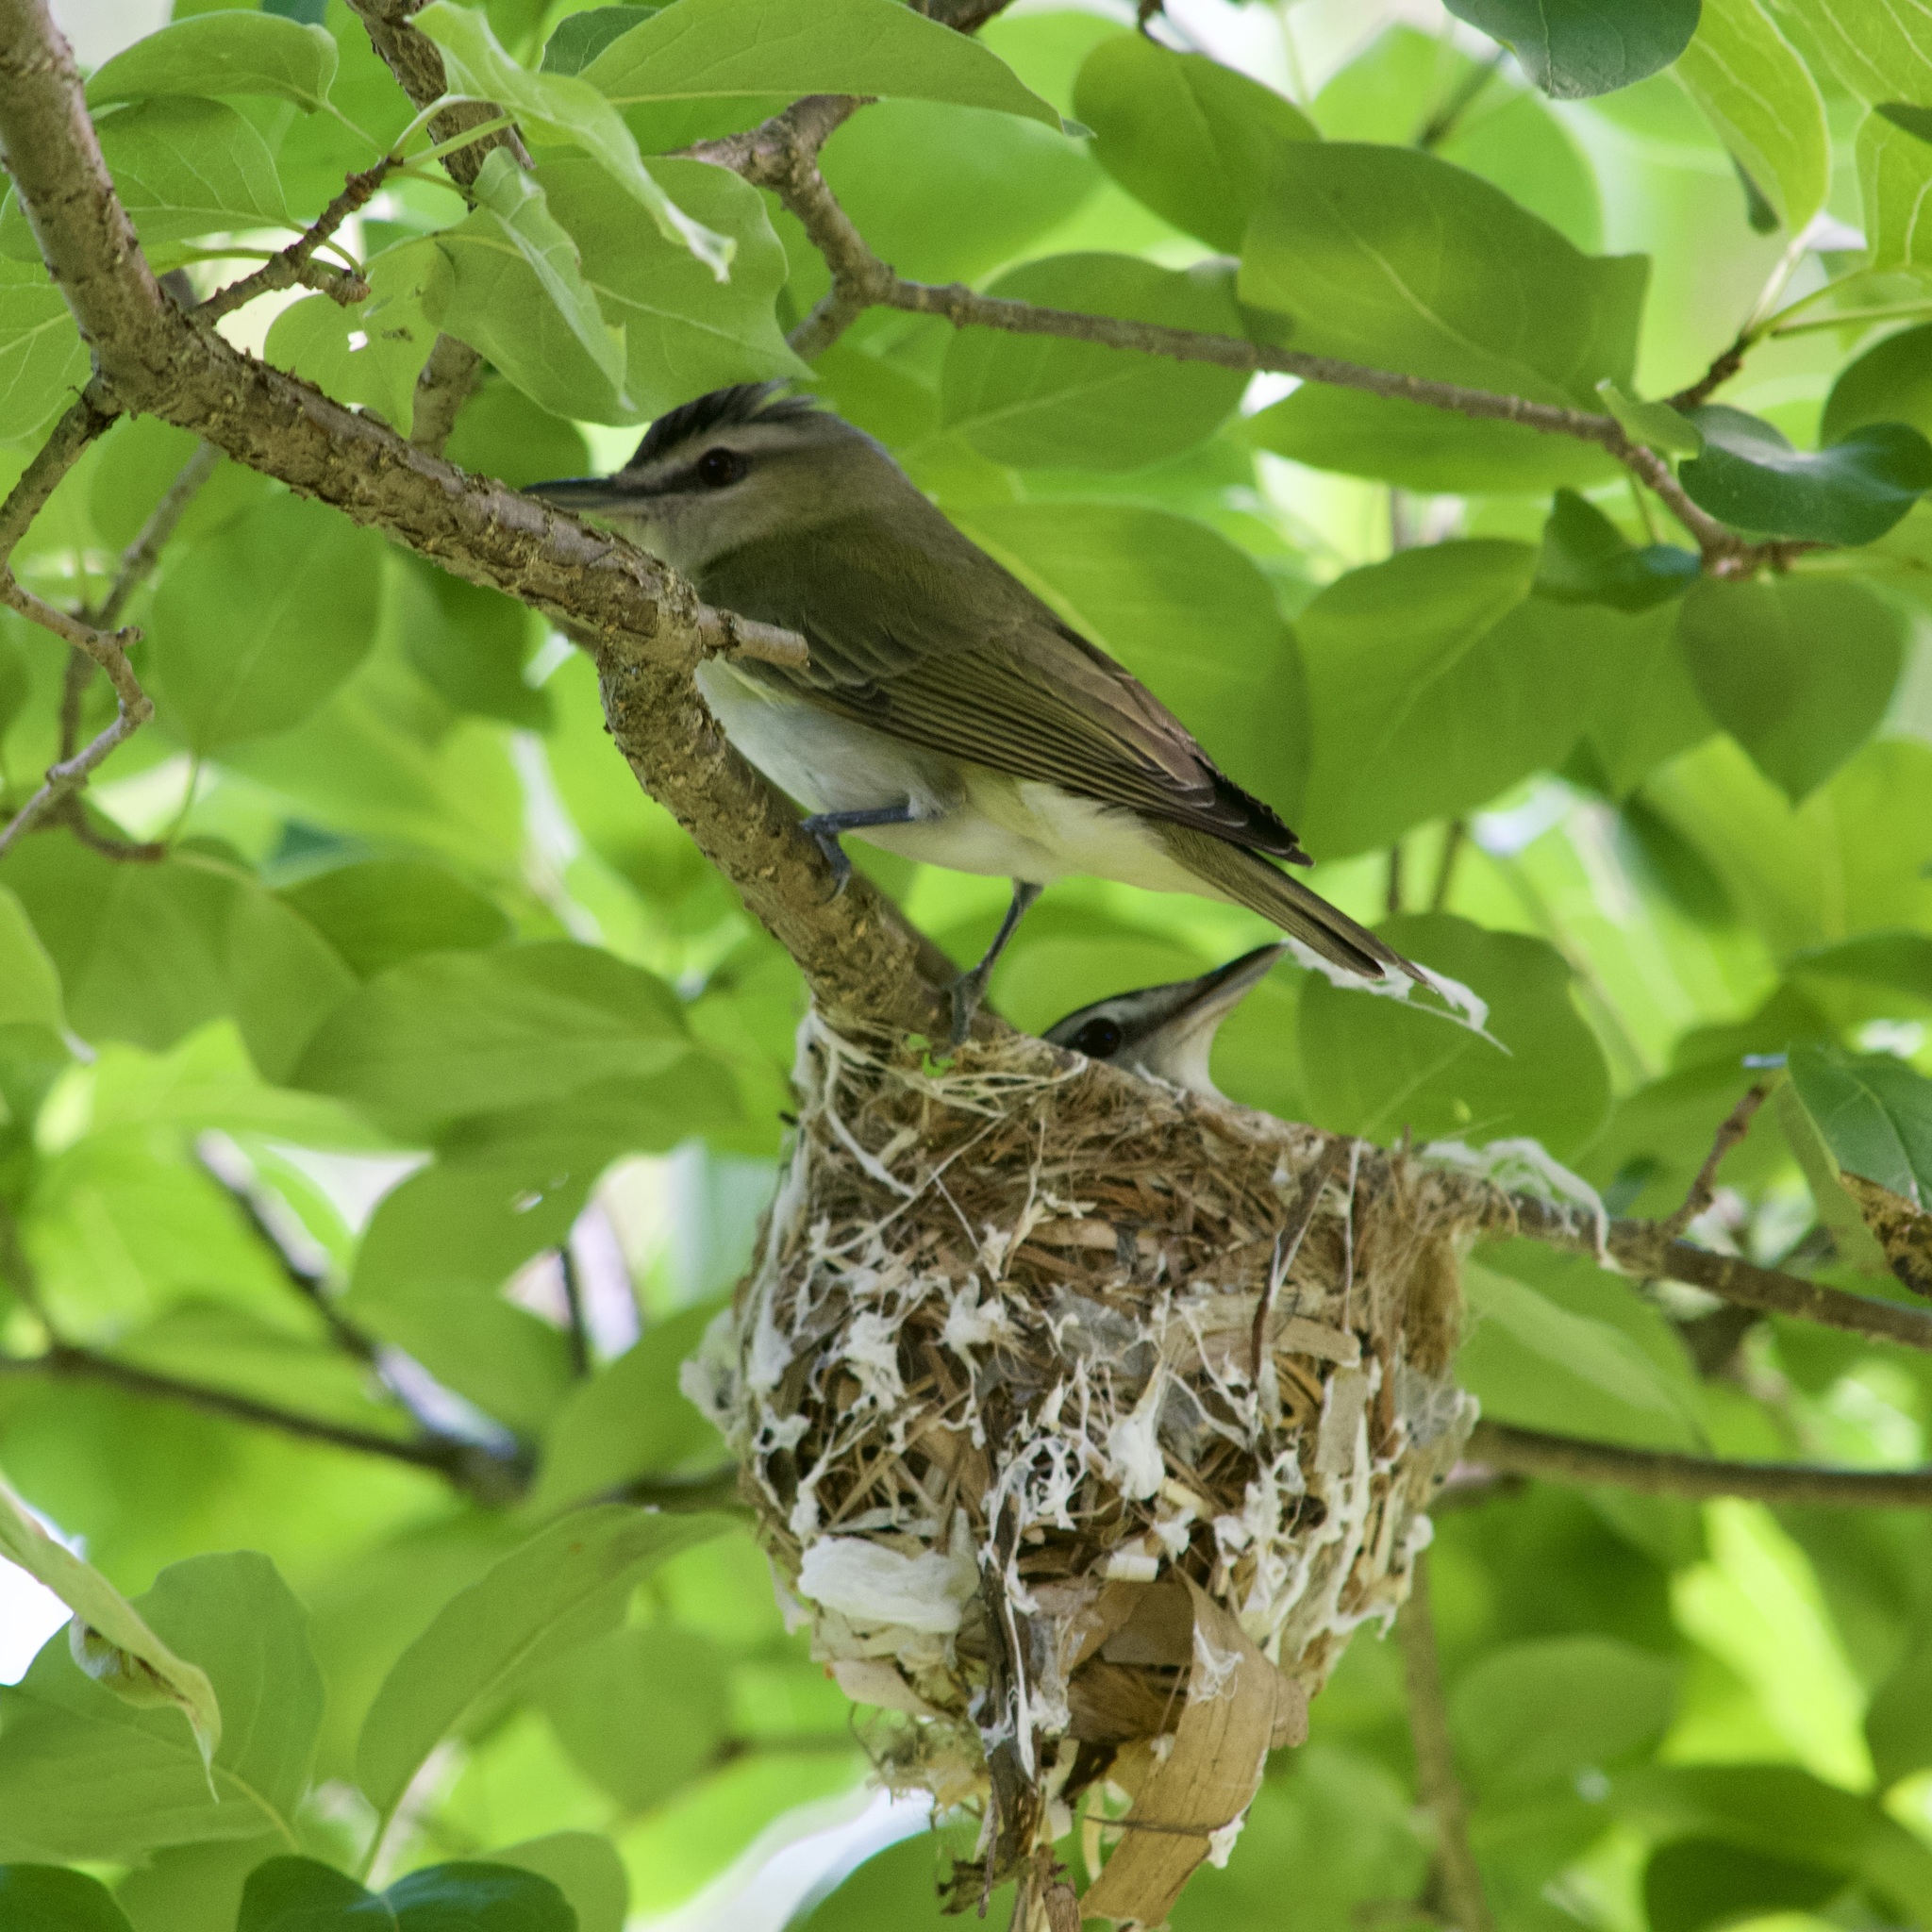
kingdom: Animalia
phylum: Chordata
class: Aves
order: Passeriformes
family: Vireonidae
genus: Vireo
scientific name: Vireo olivaceus
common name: Red-eyed vireo
